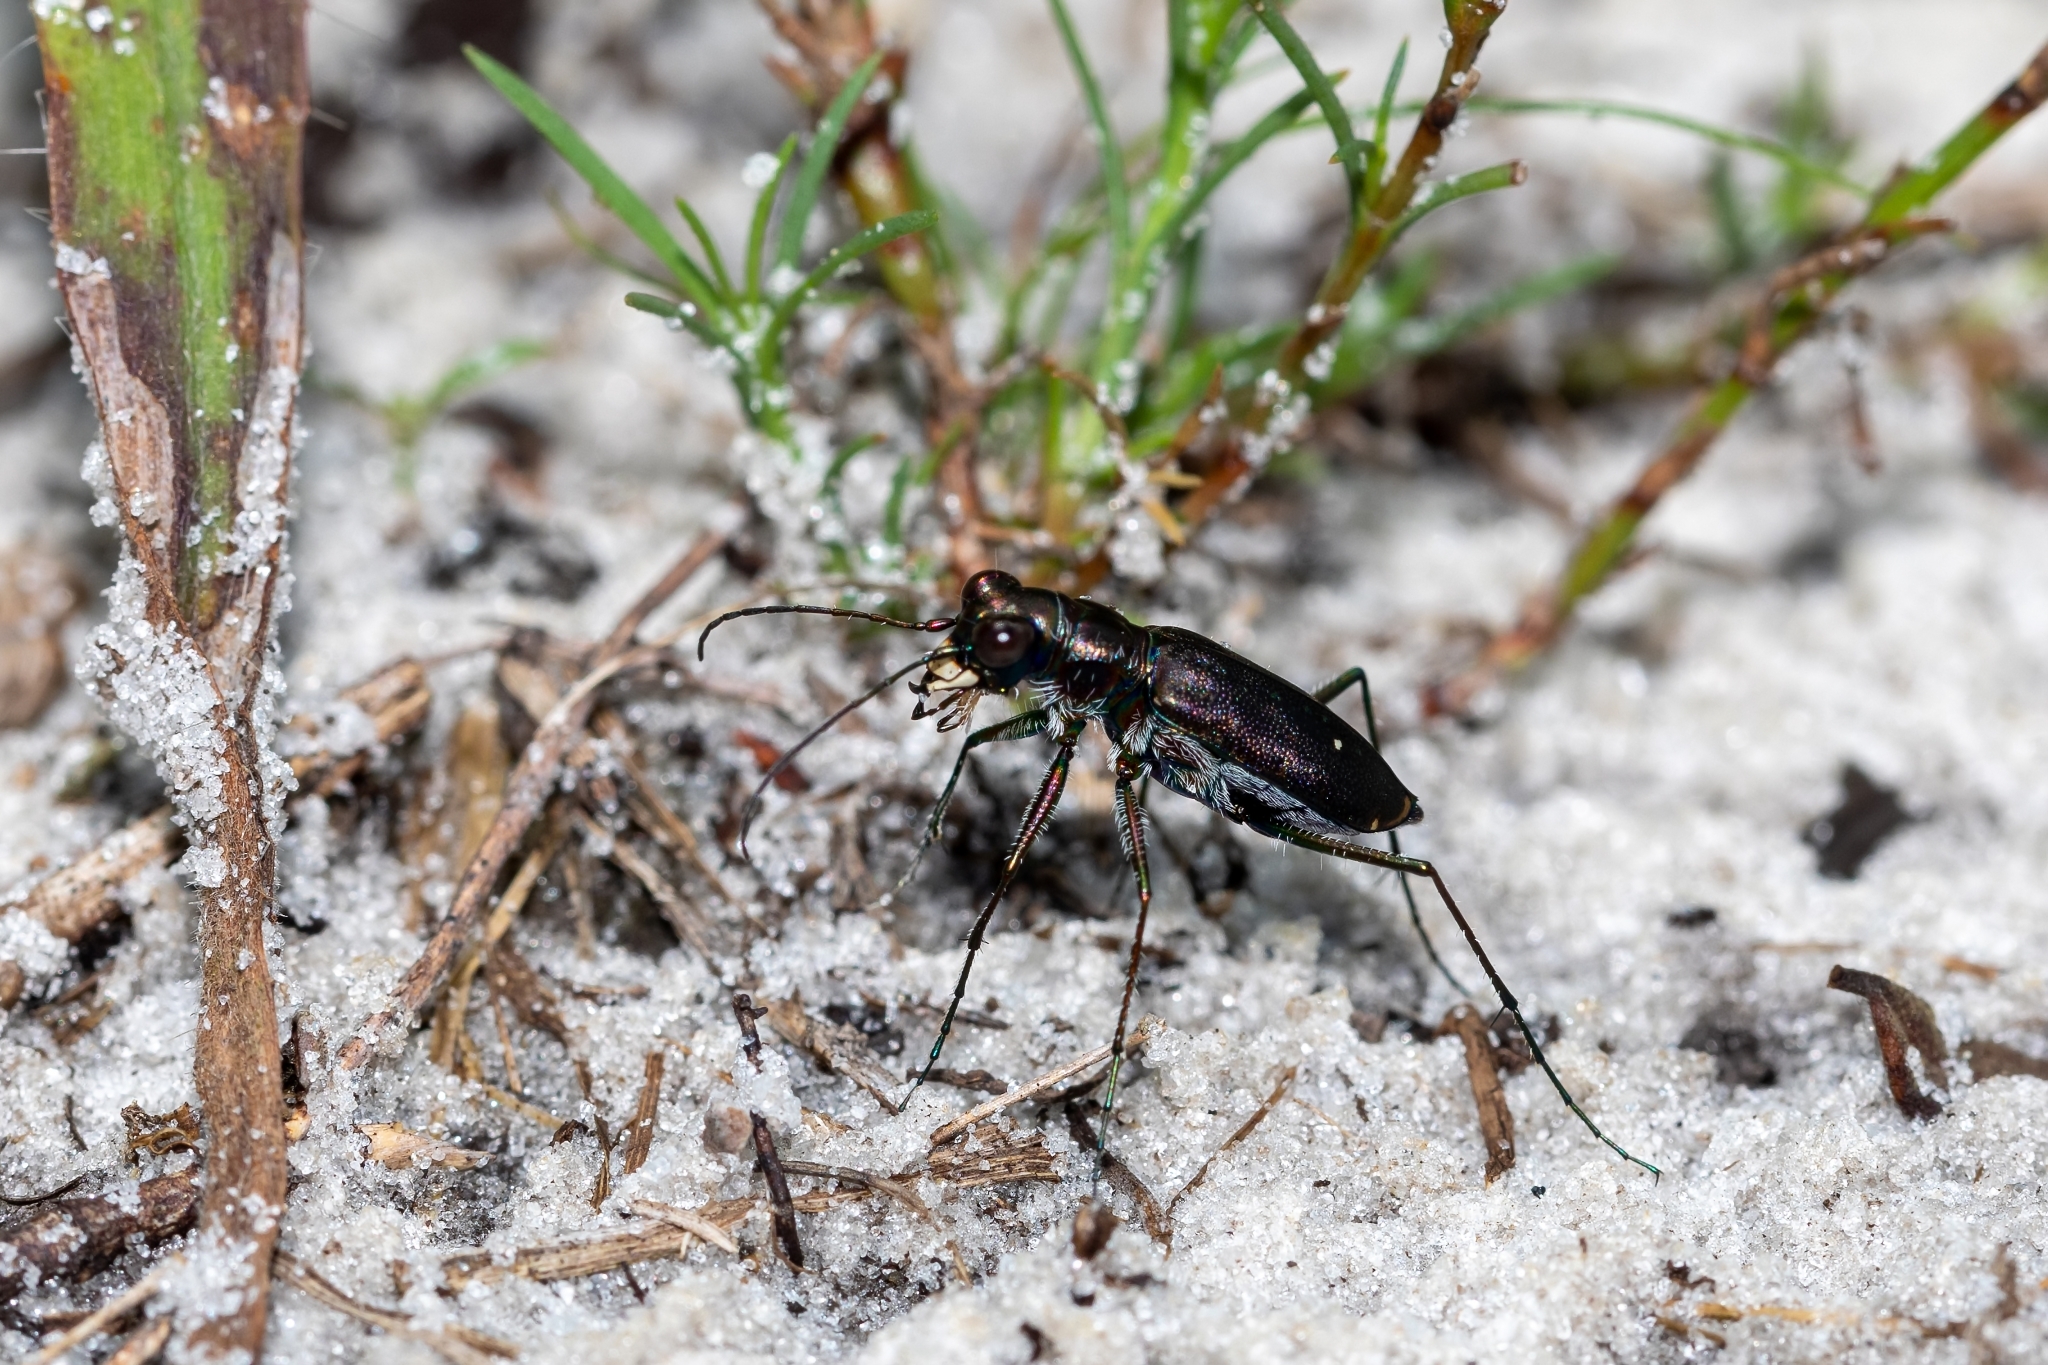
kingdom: Animalia
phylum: Arthropoda
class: Insecta
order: Coleoptera
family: Carabidae
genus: Cicindela
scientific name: Cicindela punctulata
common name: Punctured tiger beetle
